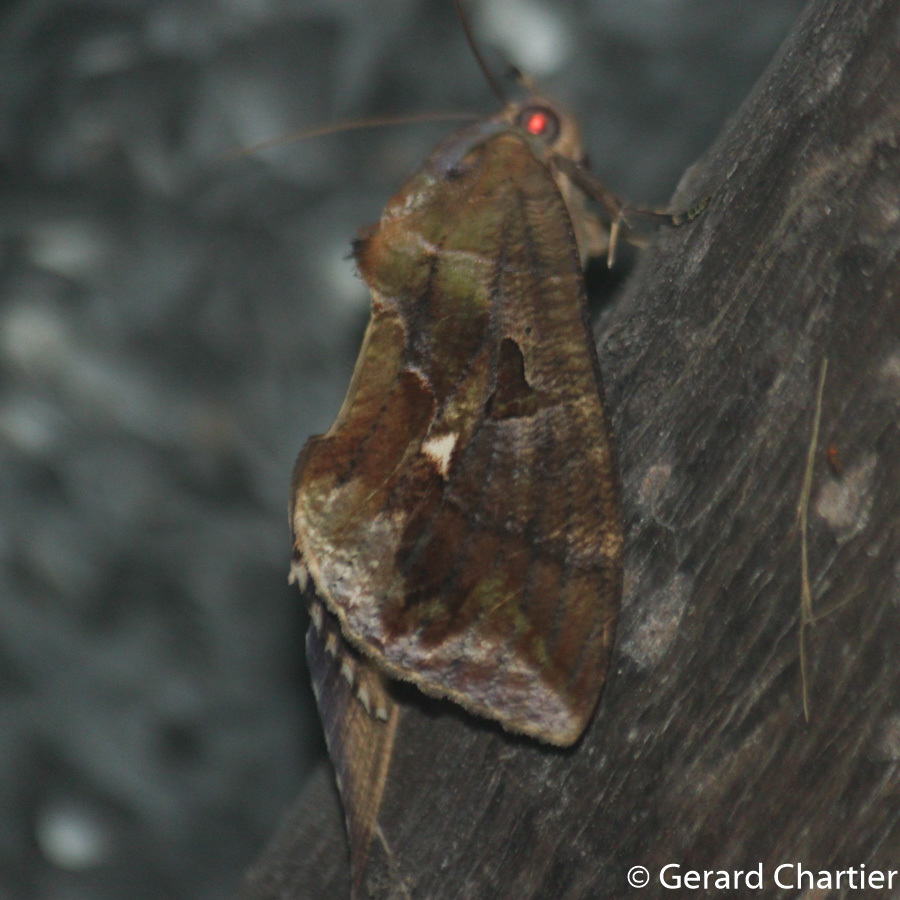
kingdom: Animalia
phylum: Arthropoda
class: Insecta
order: Lepidoptera
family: Erebidae
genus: Eudocima
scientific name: Eudocima phalonia
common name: Wasp
